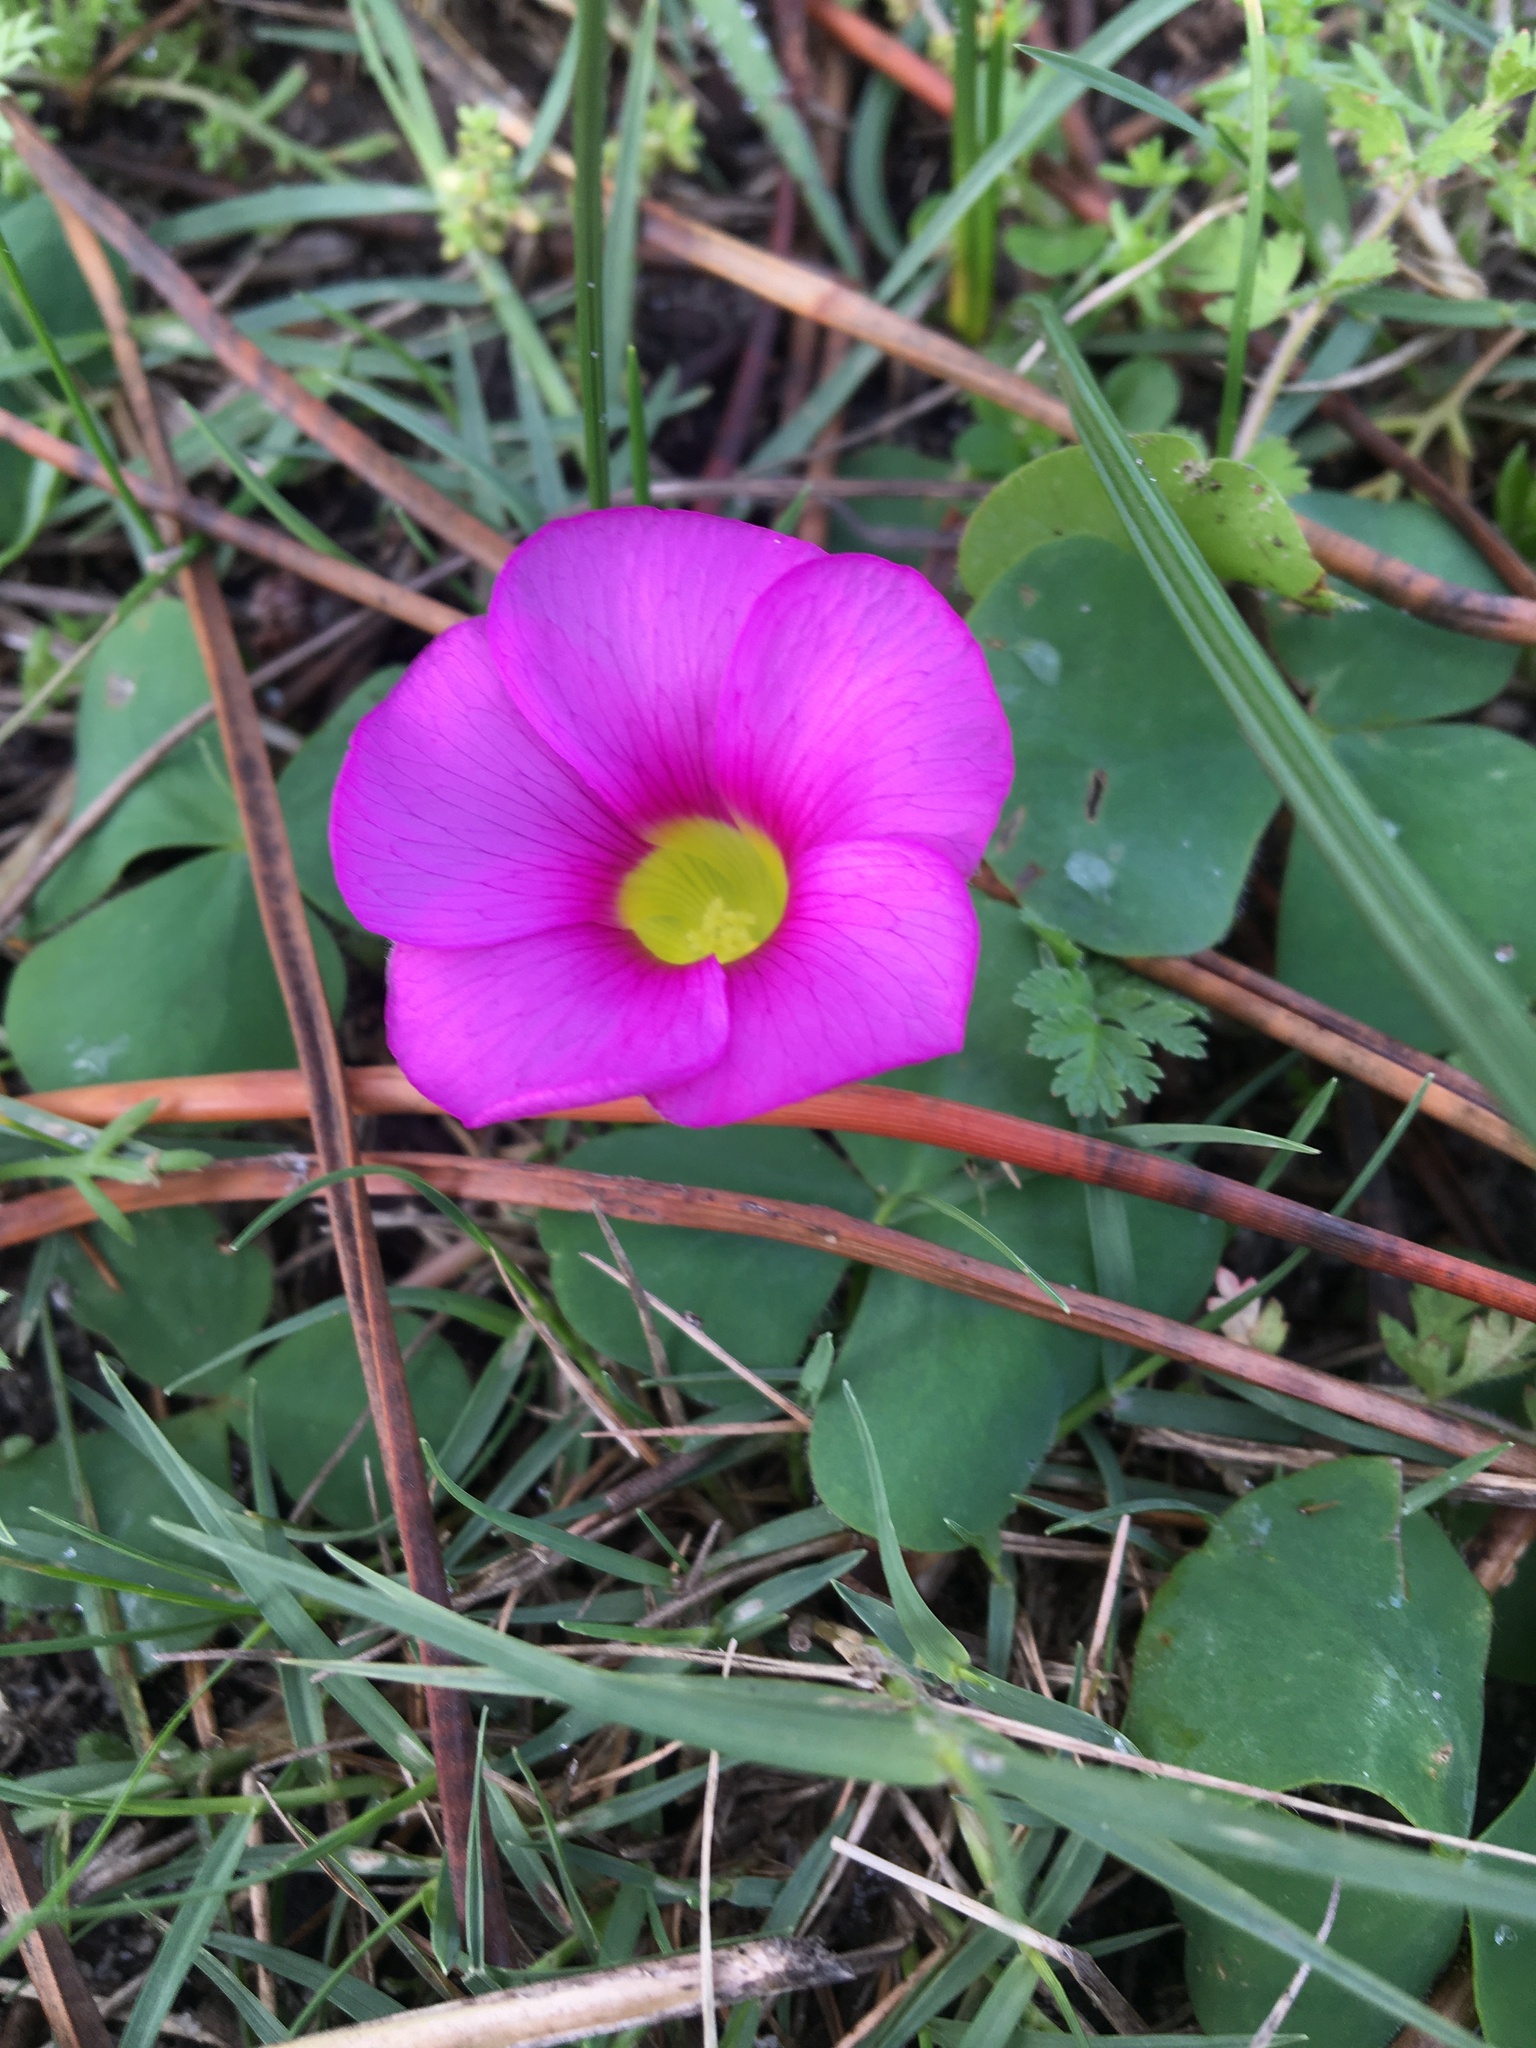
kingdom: Plantae
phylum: Tracheophyta
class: Magnoliopsida
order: Oxalidales
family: Oxalidaceae
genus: Oxalis
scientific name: Oxalis purpurea
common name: Purple woodsorrel
